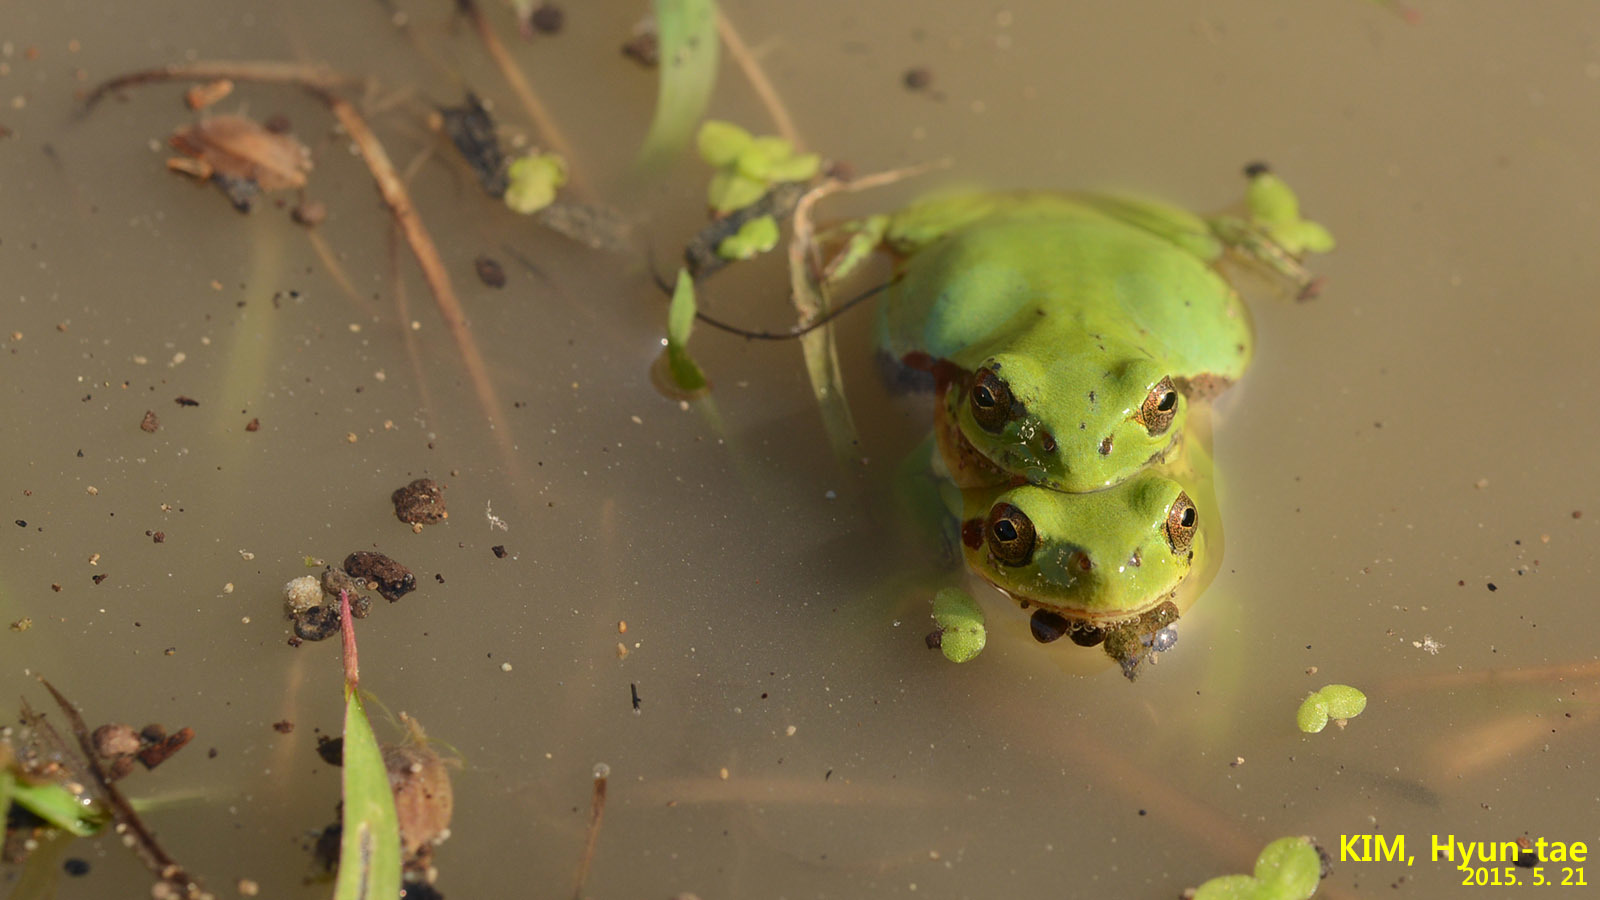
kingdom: Animalia
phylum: Chordata
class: Amphibia
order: Anura
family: Hylidae
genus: Dryophytes
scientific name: Dryophytes immaculatus
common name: North china treefrog
